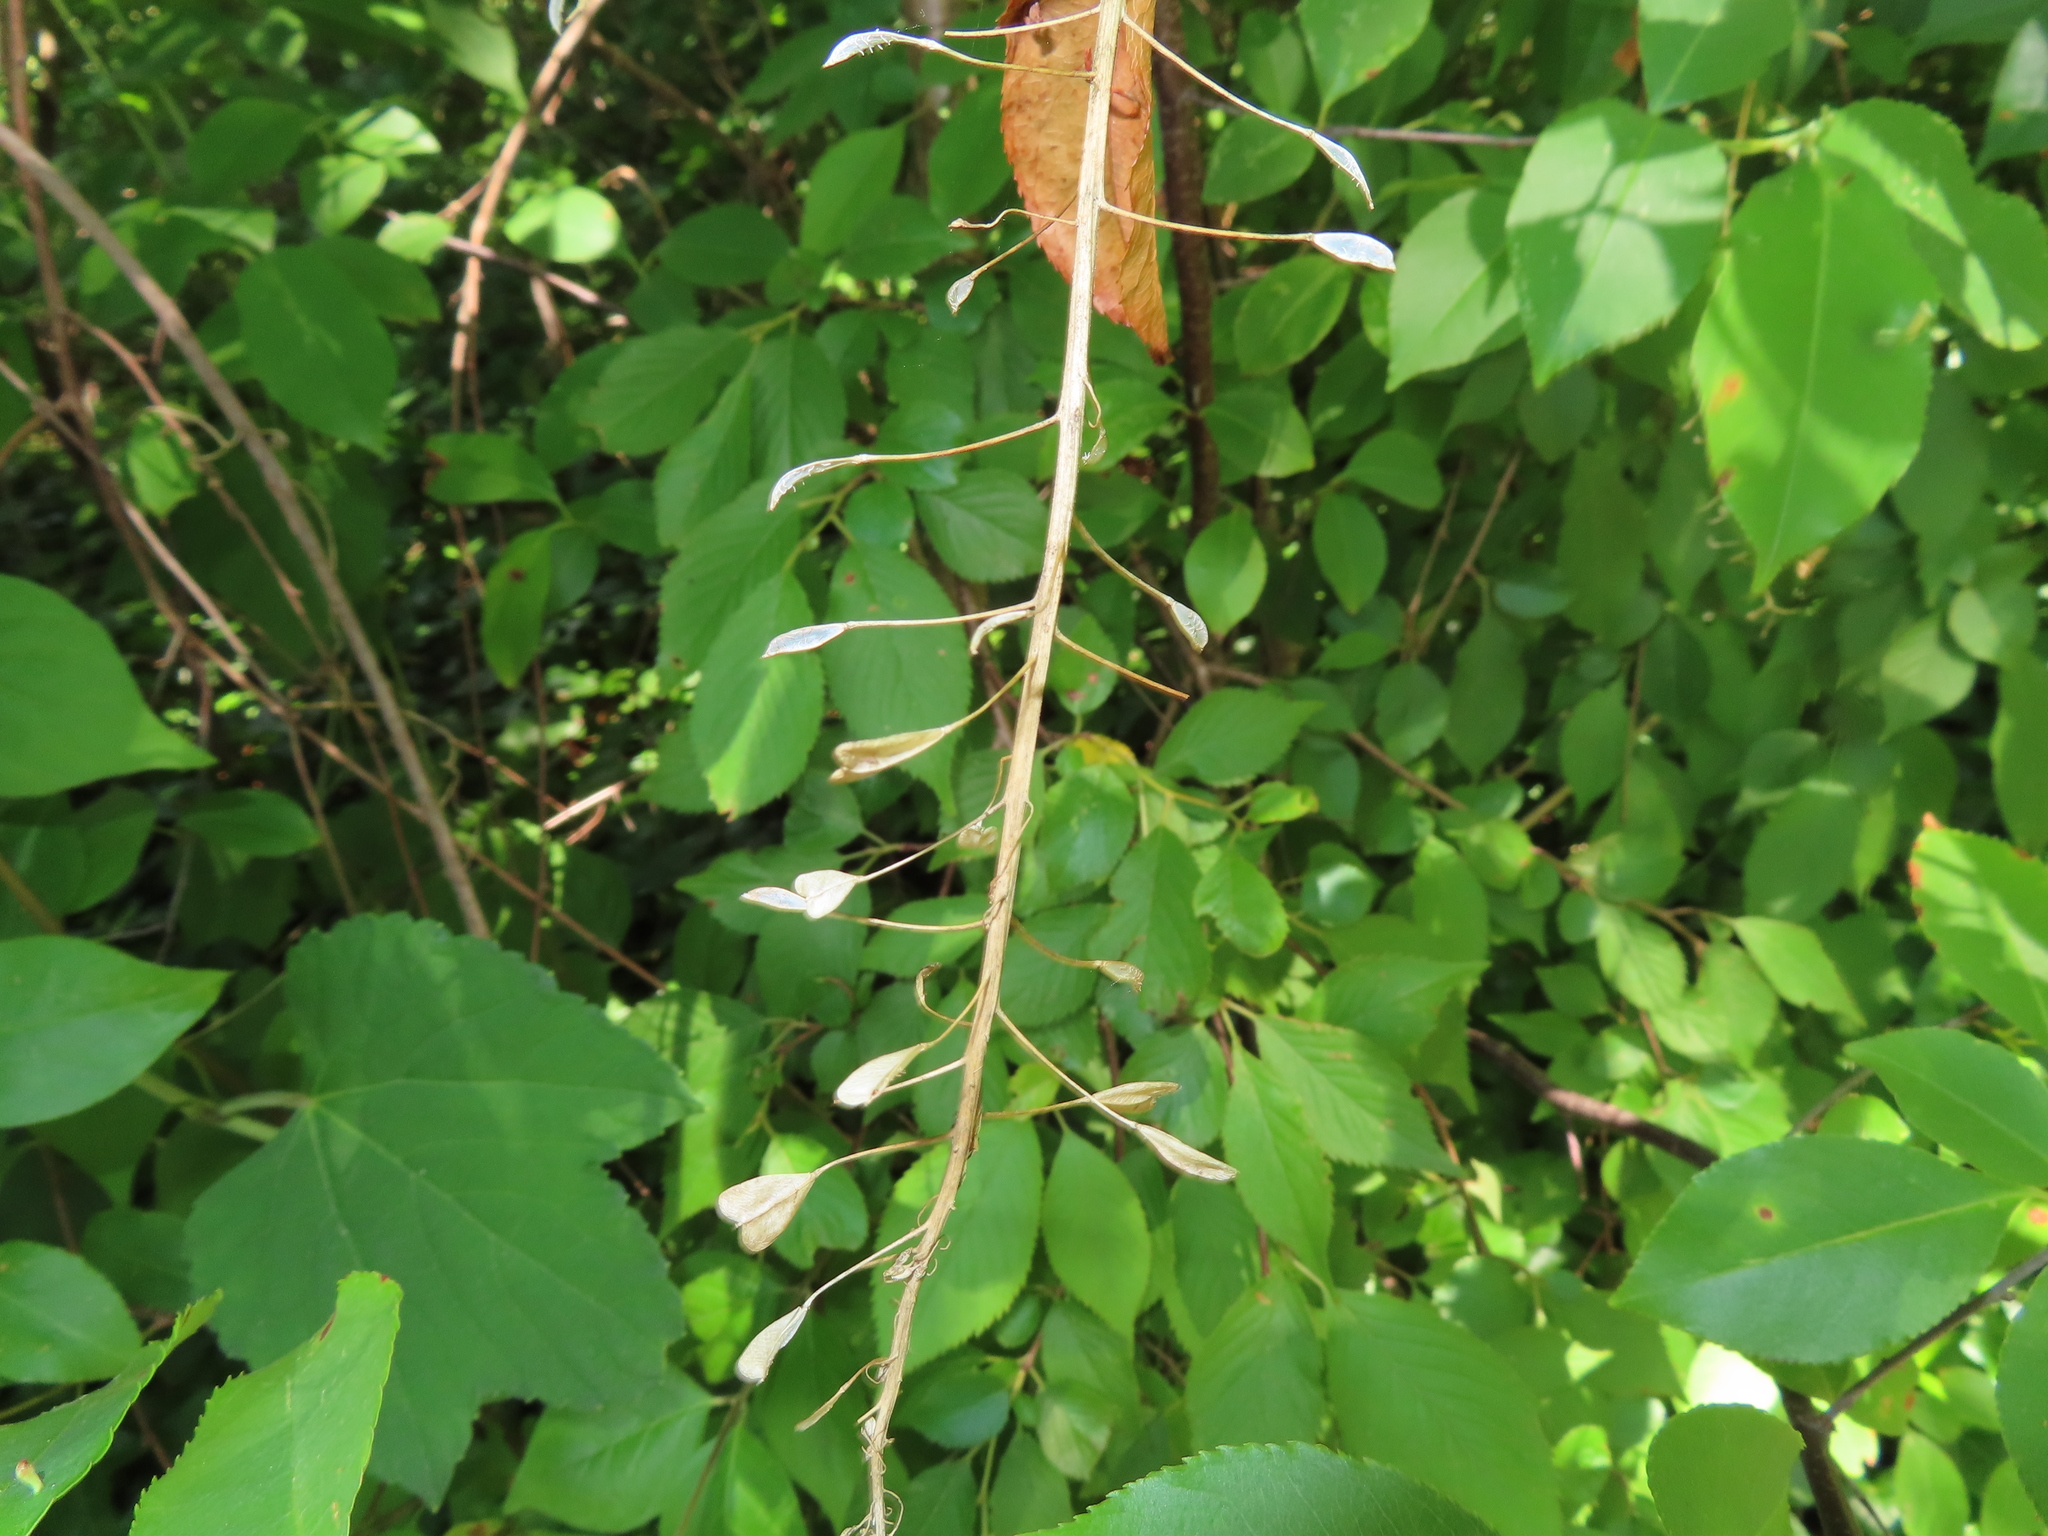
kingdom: Plantae
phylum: Tracheophyta
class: Magnoliopsida
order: Brassicales
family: Brassicaceae
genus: Capsella
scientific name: Capsella bursa-pastoris
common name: Shepherd's purse
